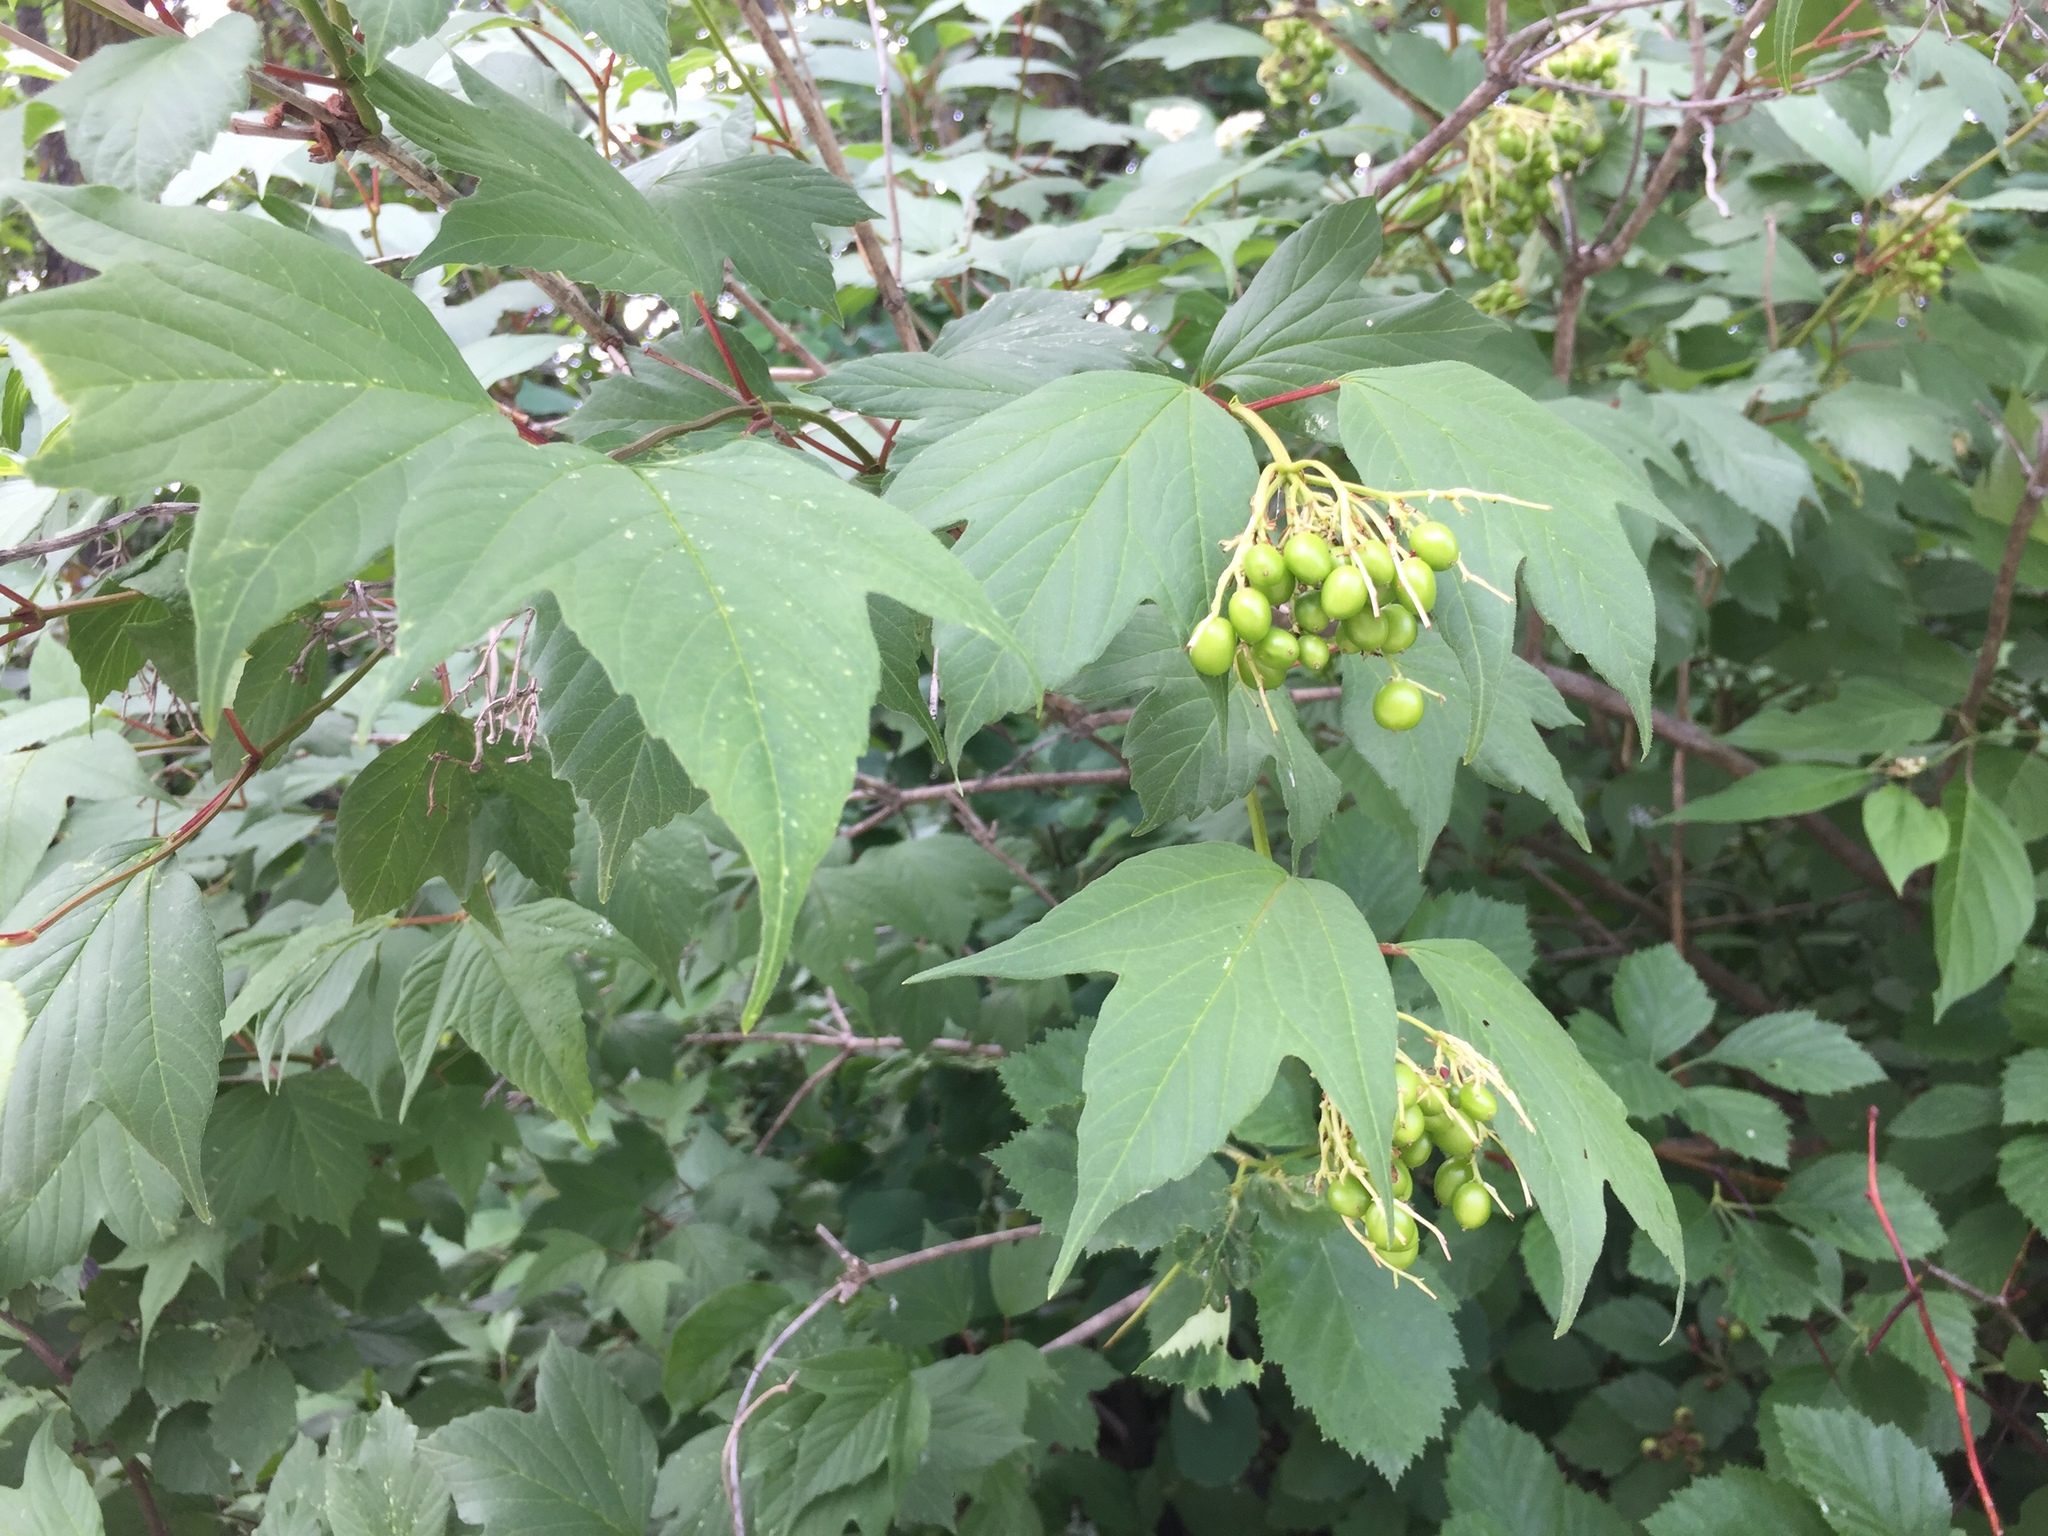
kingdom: Plantae
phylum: Tracheophyta
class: Magnoliopsida
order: Dipsacales
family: Viburnaceae
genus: Viburnum
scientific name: Viburnum trilobum
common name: American cranberrybush
